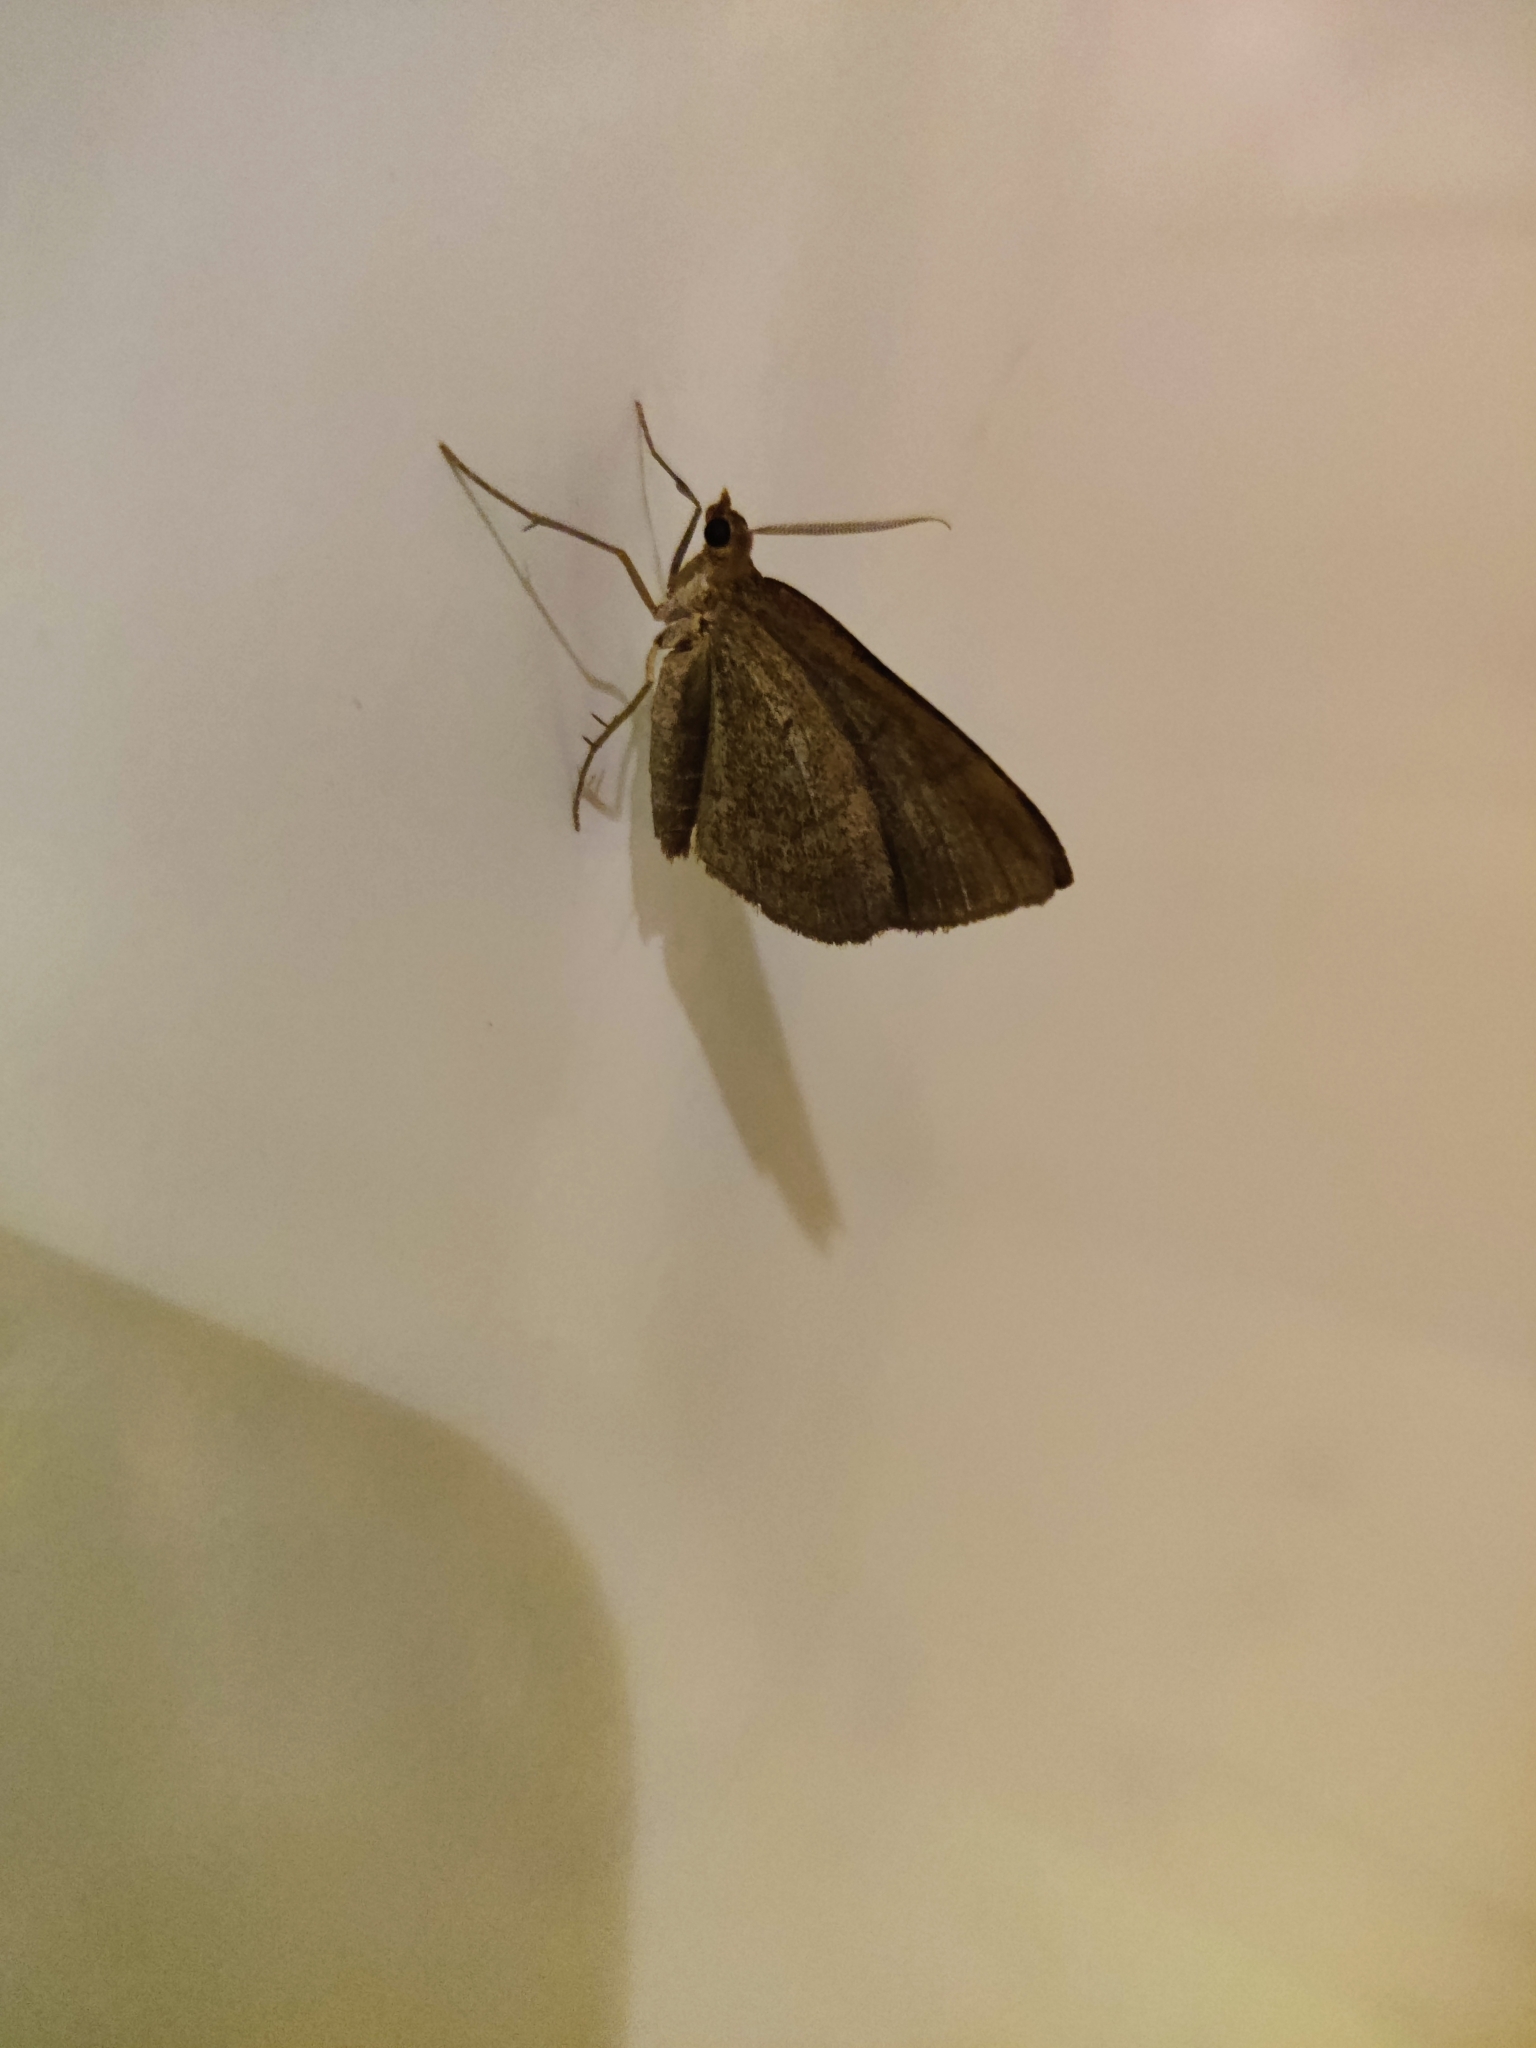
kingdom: Animalia
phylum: Arthropoda
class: Insecta
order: Lepidoptera
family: Geometridae
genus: Scotopteryx
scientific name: Scotopteryx chenopodiata
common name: Shaded broad-bar
